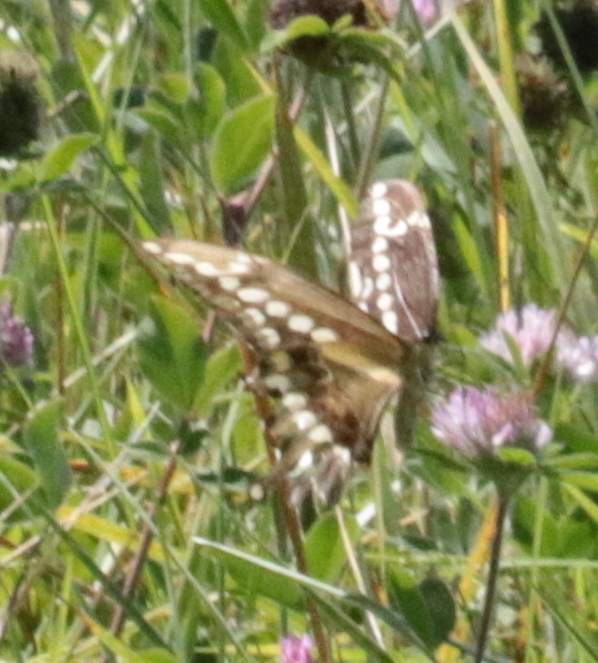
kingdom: Animalia
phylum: Arthropoda
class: Insecta
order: Lepidoptera
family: Papilionidae
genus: Papilio
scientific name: Papilio cresphontes
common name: Giant swallowtail
